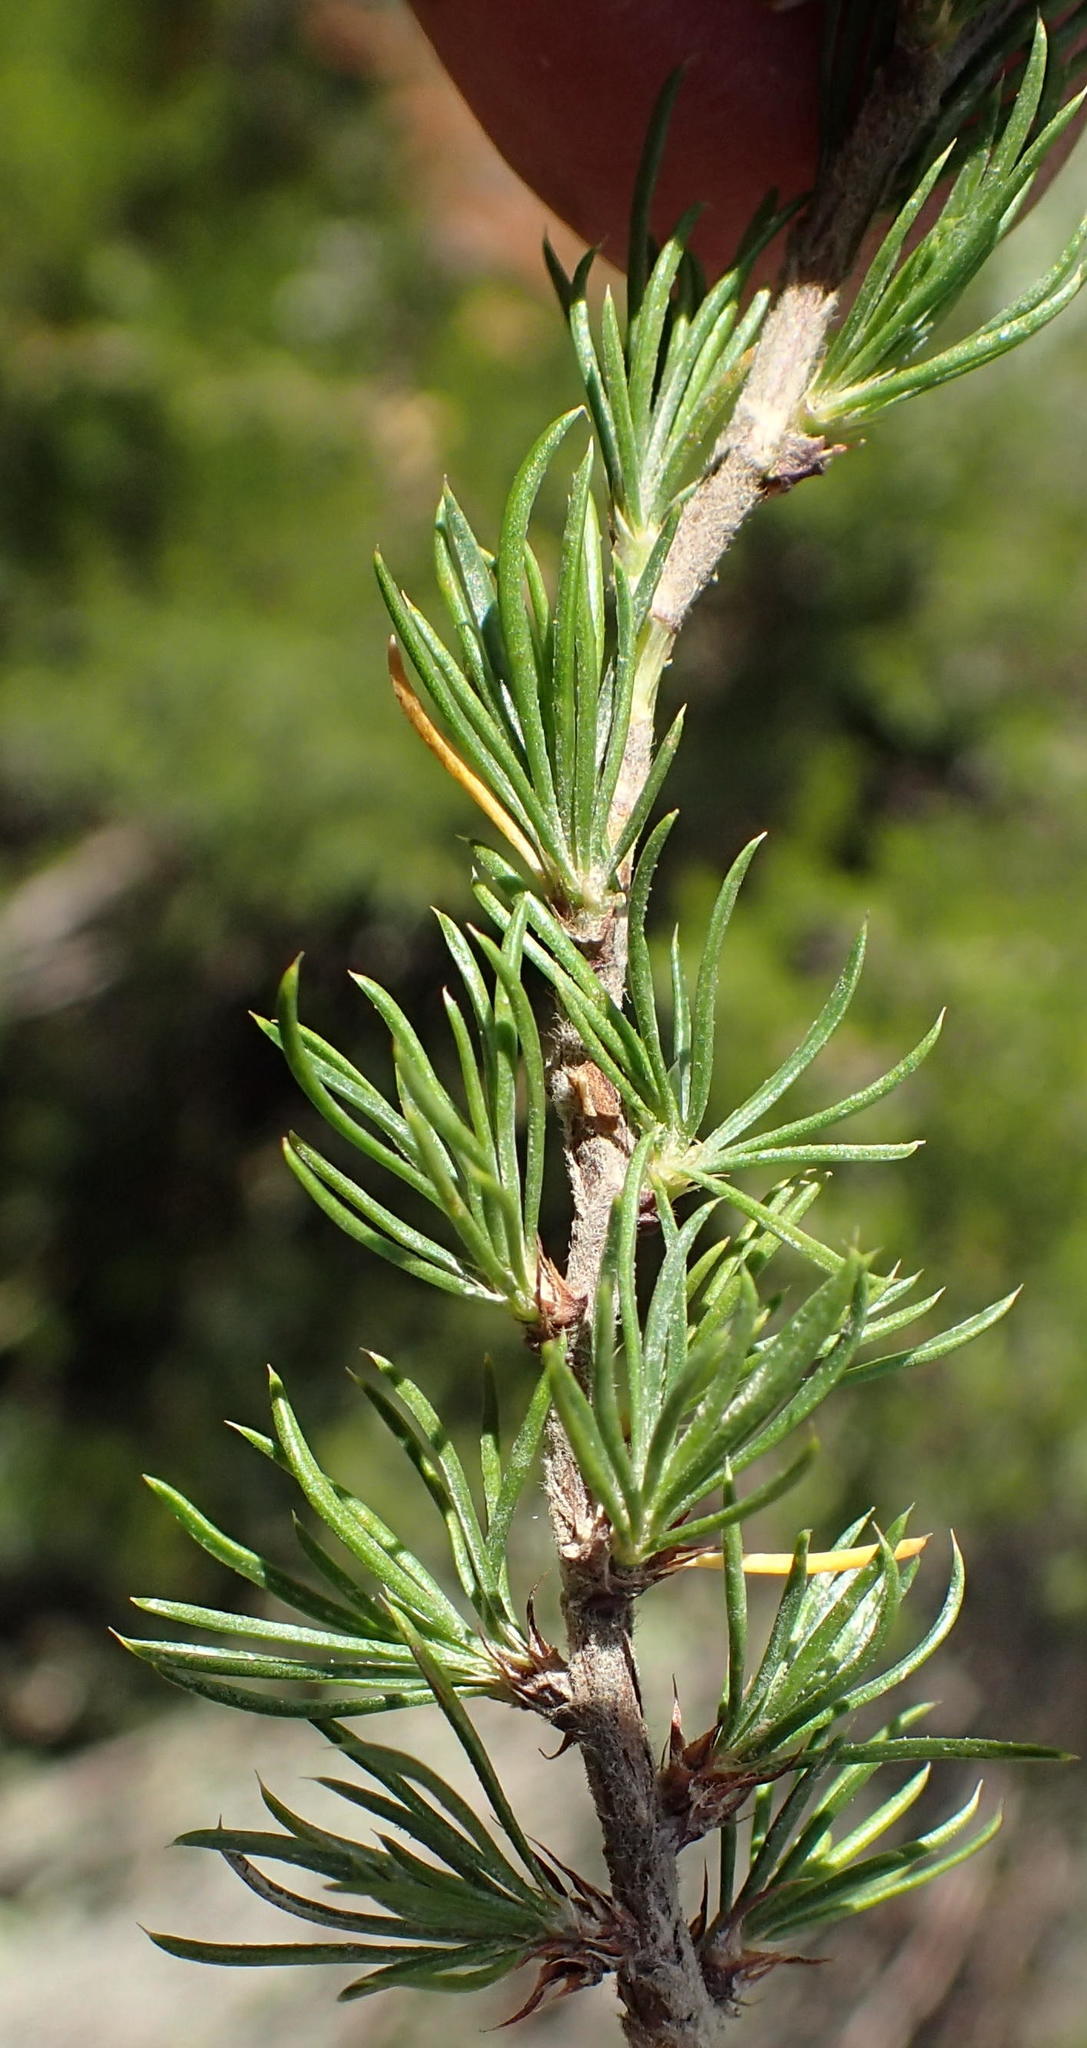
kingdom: Plantae
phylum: Tracheophyta
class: Magnoliopsida
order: Rosales
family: Rosaceae
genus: Cliffortia
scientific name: Cliffortia tuberculata
